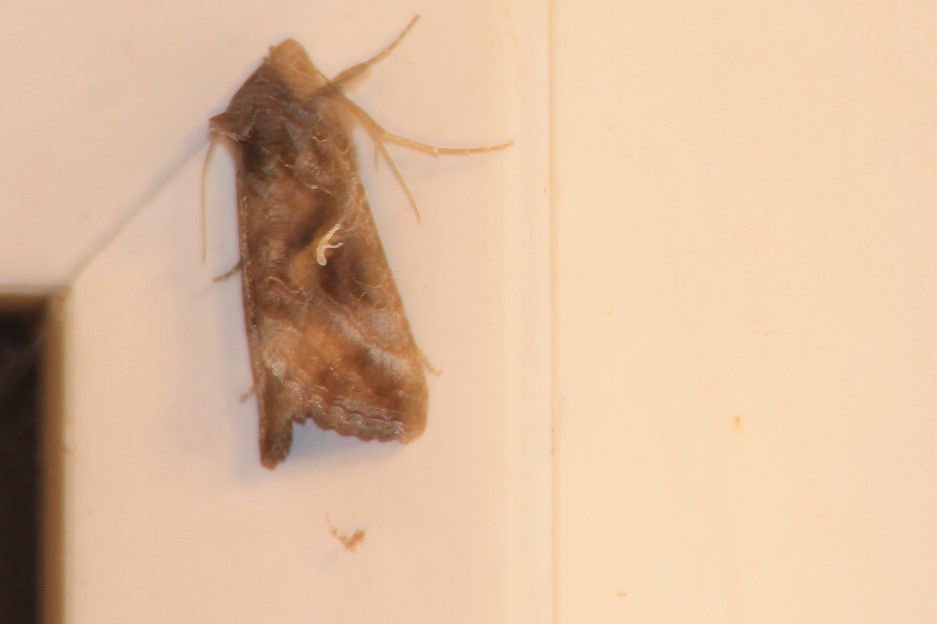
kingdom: Animalia
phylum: Arthropoda
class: Insecta
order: Lepidoptera
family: Noctuidae
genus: Autographa
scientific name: Autographa gamma
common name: Silver y
